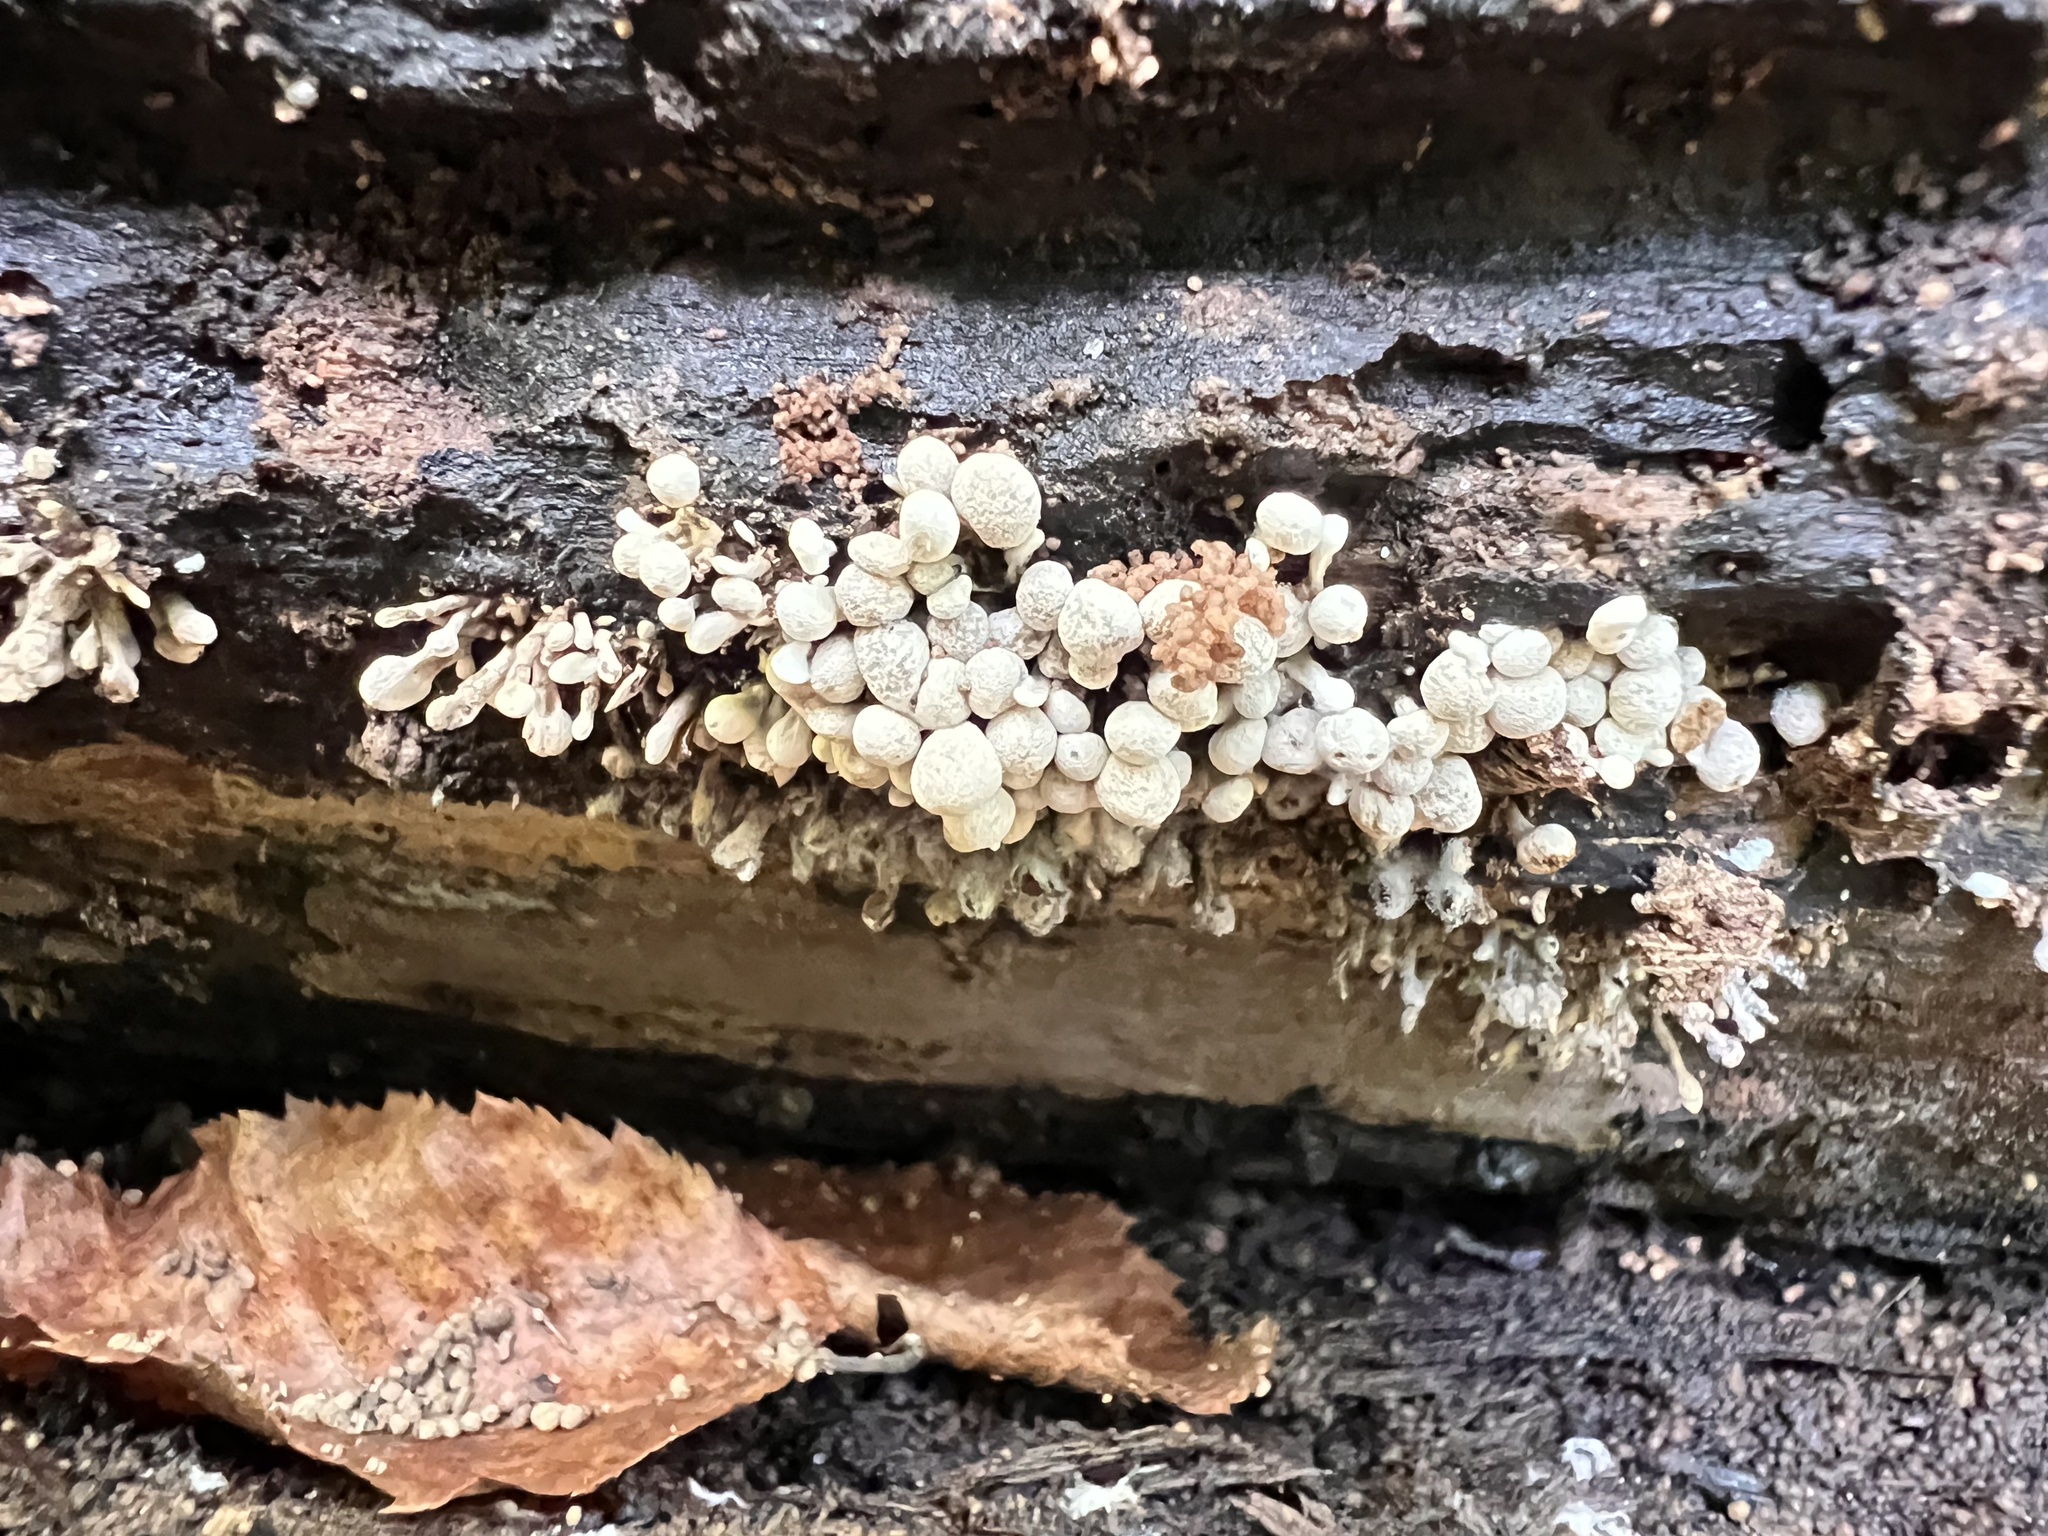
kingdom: Fungi
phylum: Basidiomycota
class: Atractiellomycetes
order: Atractiellales
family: Phleogenaceae
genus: Phleogena
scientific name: Phleogena faginea
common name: Fenugreek stalkball
